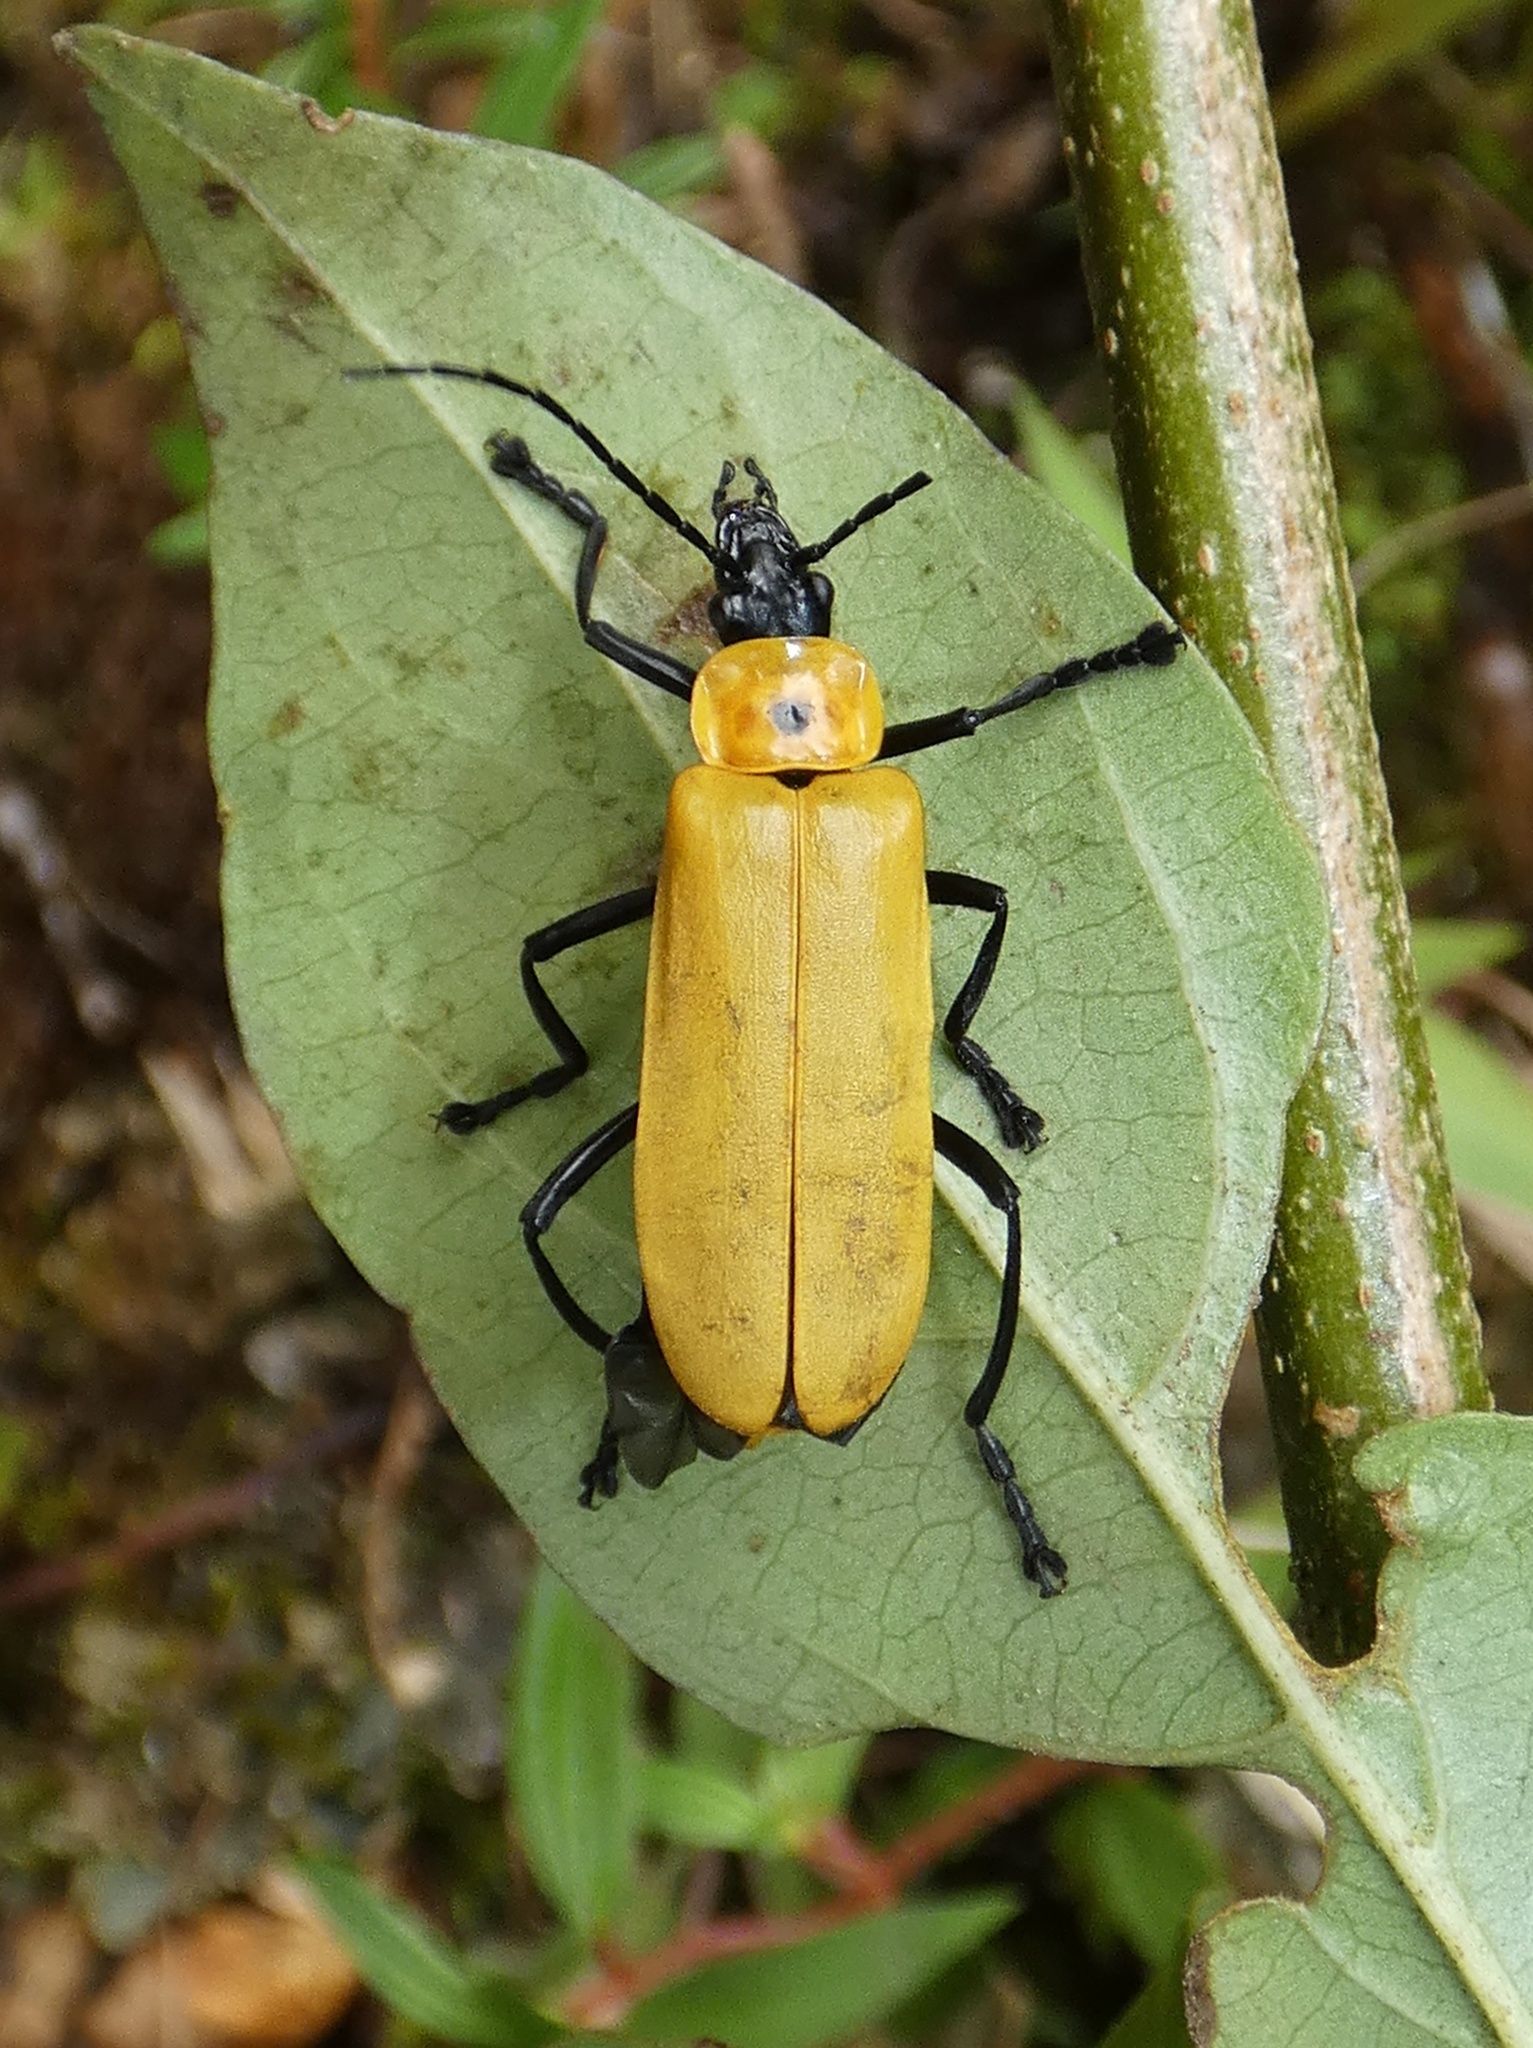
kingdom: Animalia
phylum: Arthropoda
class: Insecta
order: Coleoptera
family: Cantharidae
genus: Chauliognathus
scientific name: Chauliognathus
